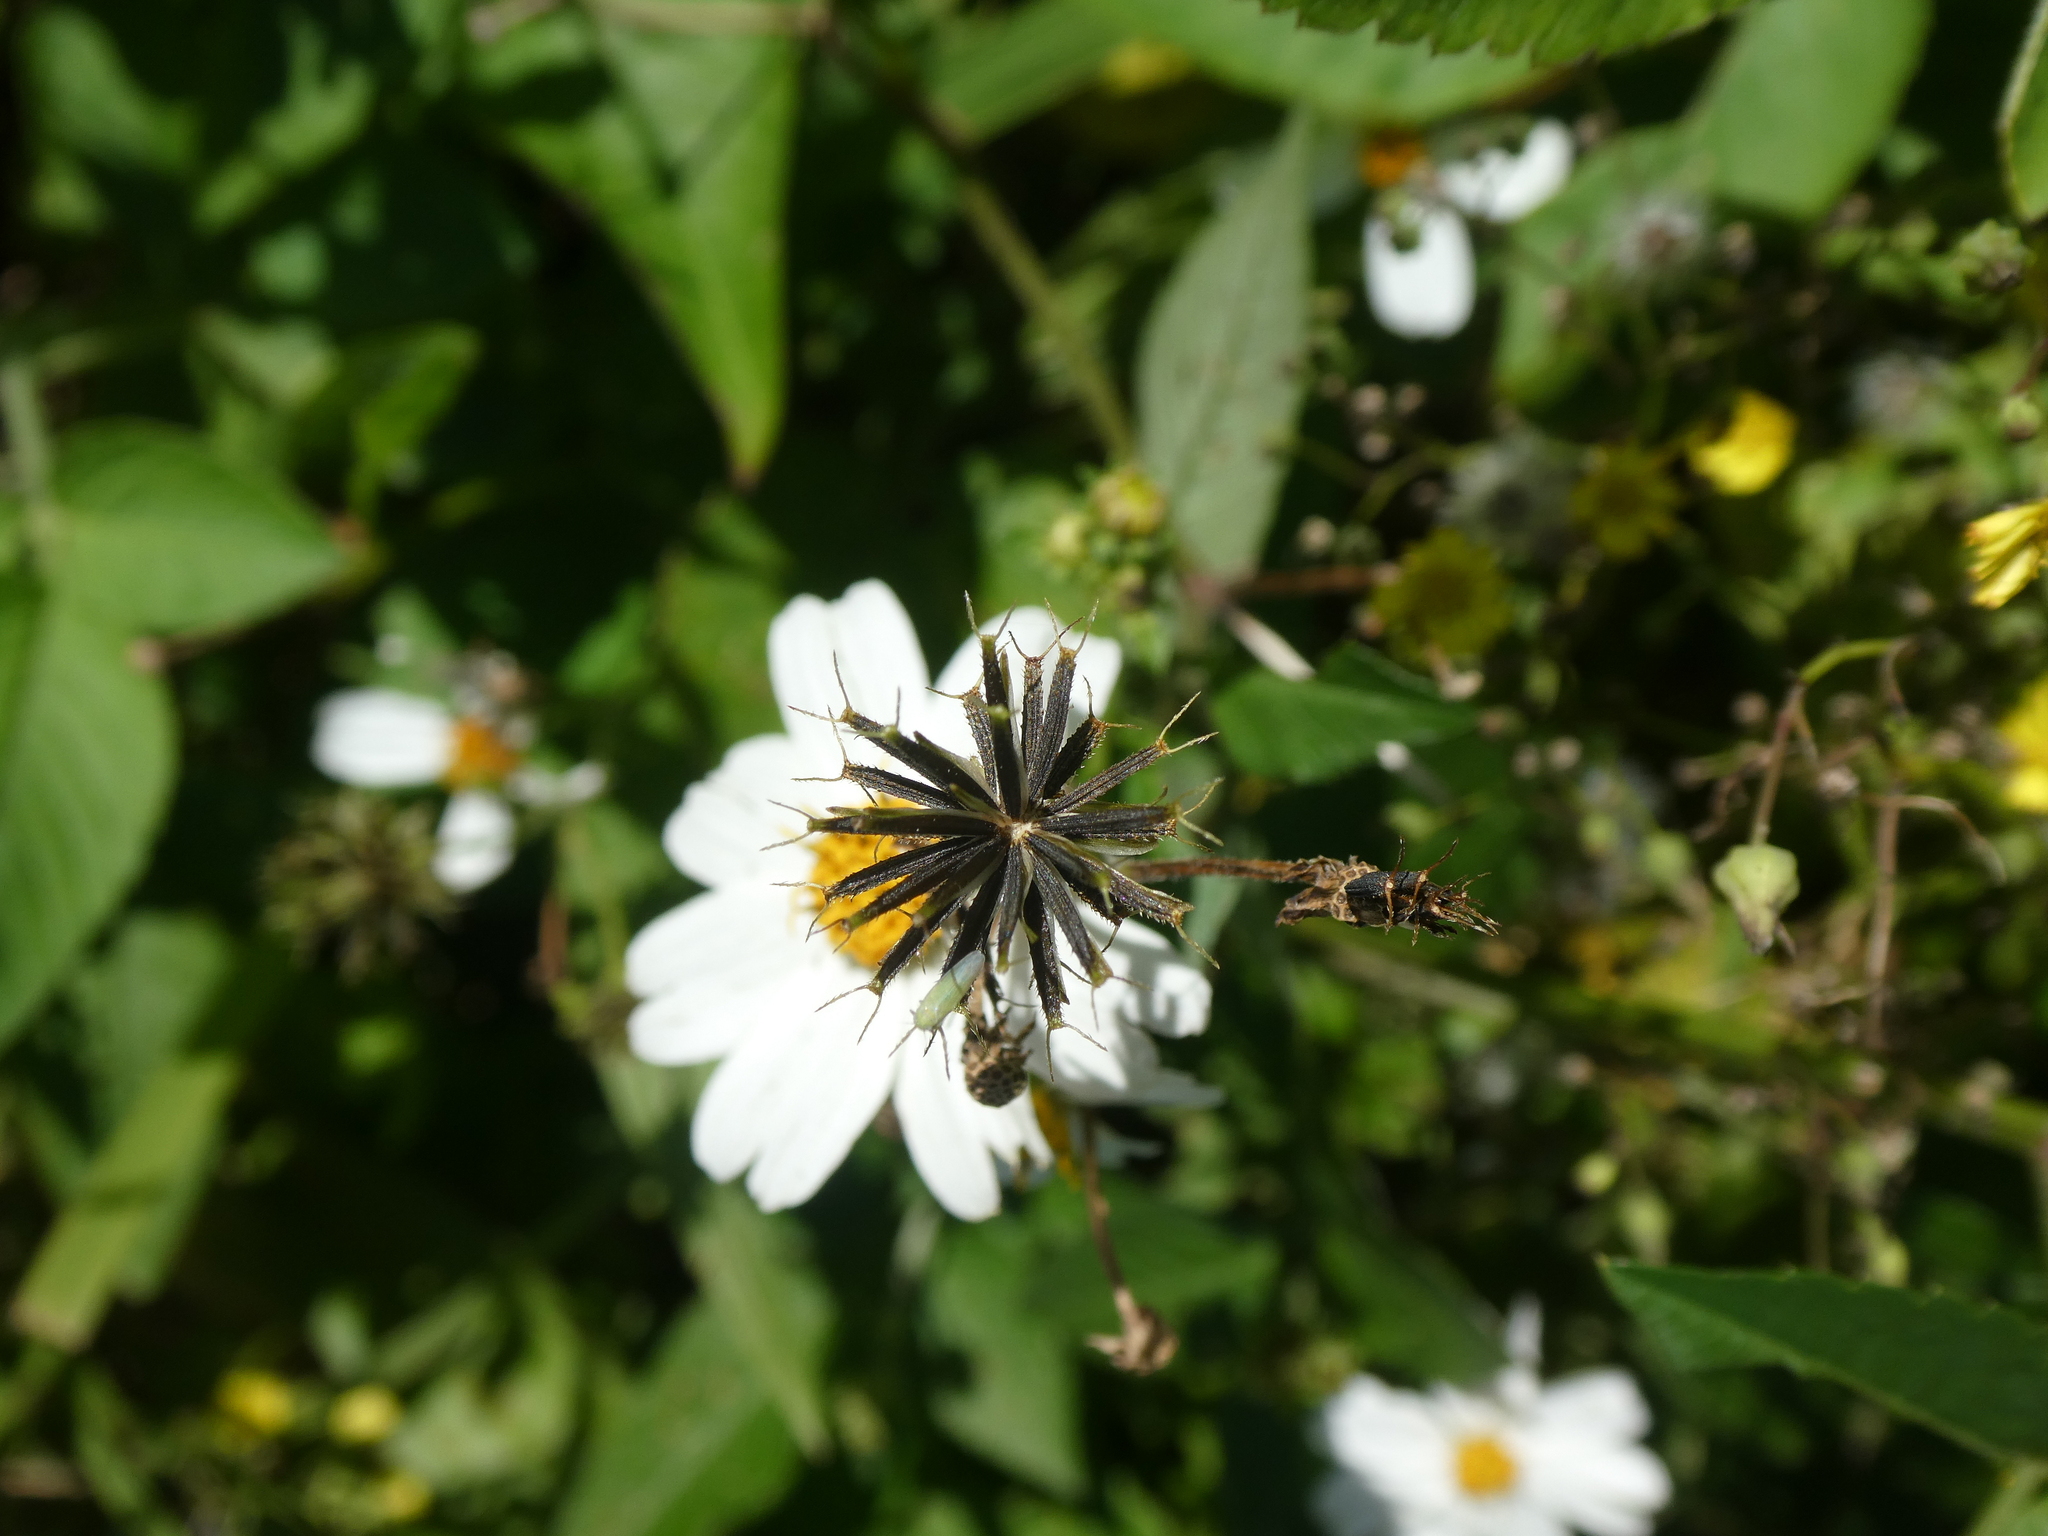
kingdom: Plantae
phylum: Tracheophyta
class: Magnoliopsida
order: Asterales
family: Asteraceae
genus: Bidens
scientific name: Bidens alba
